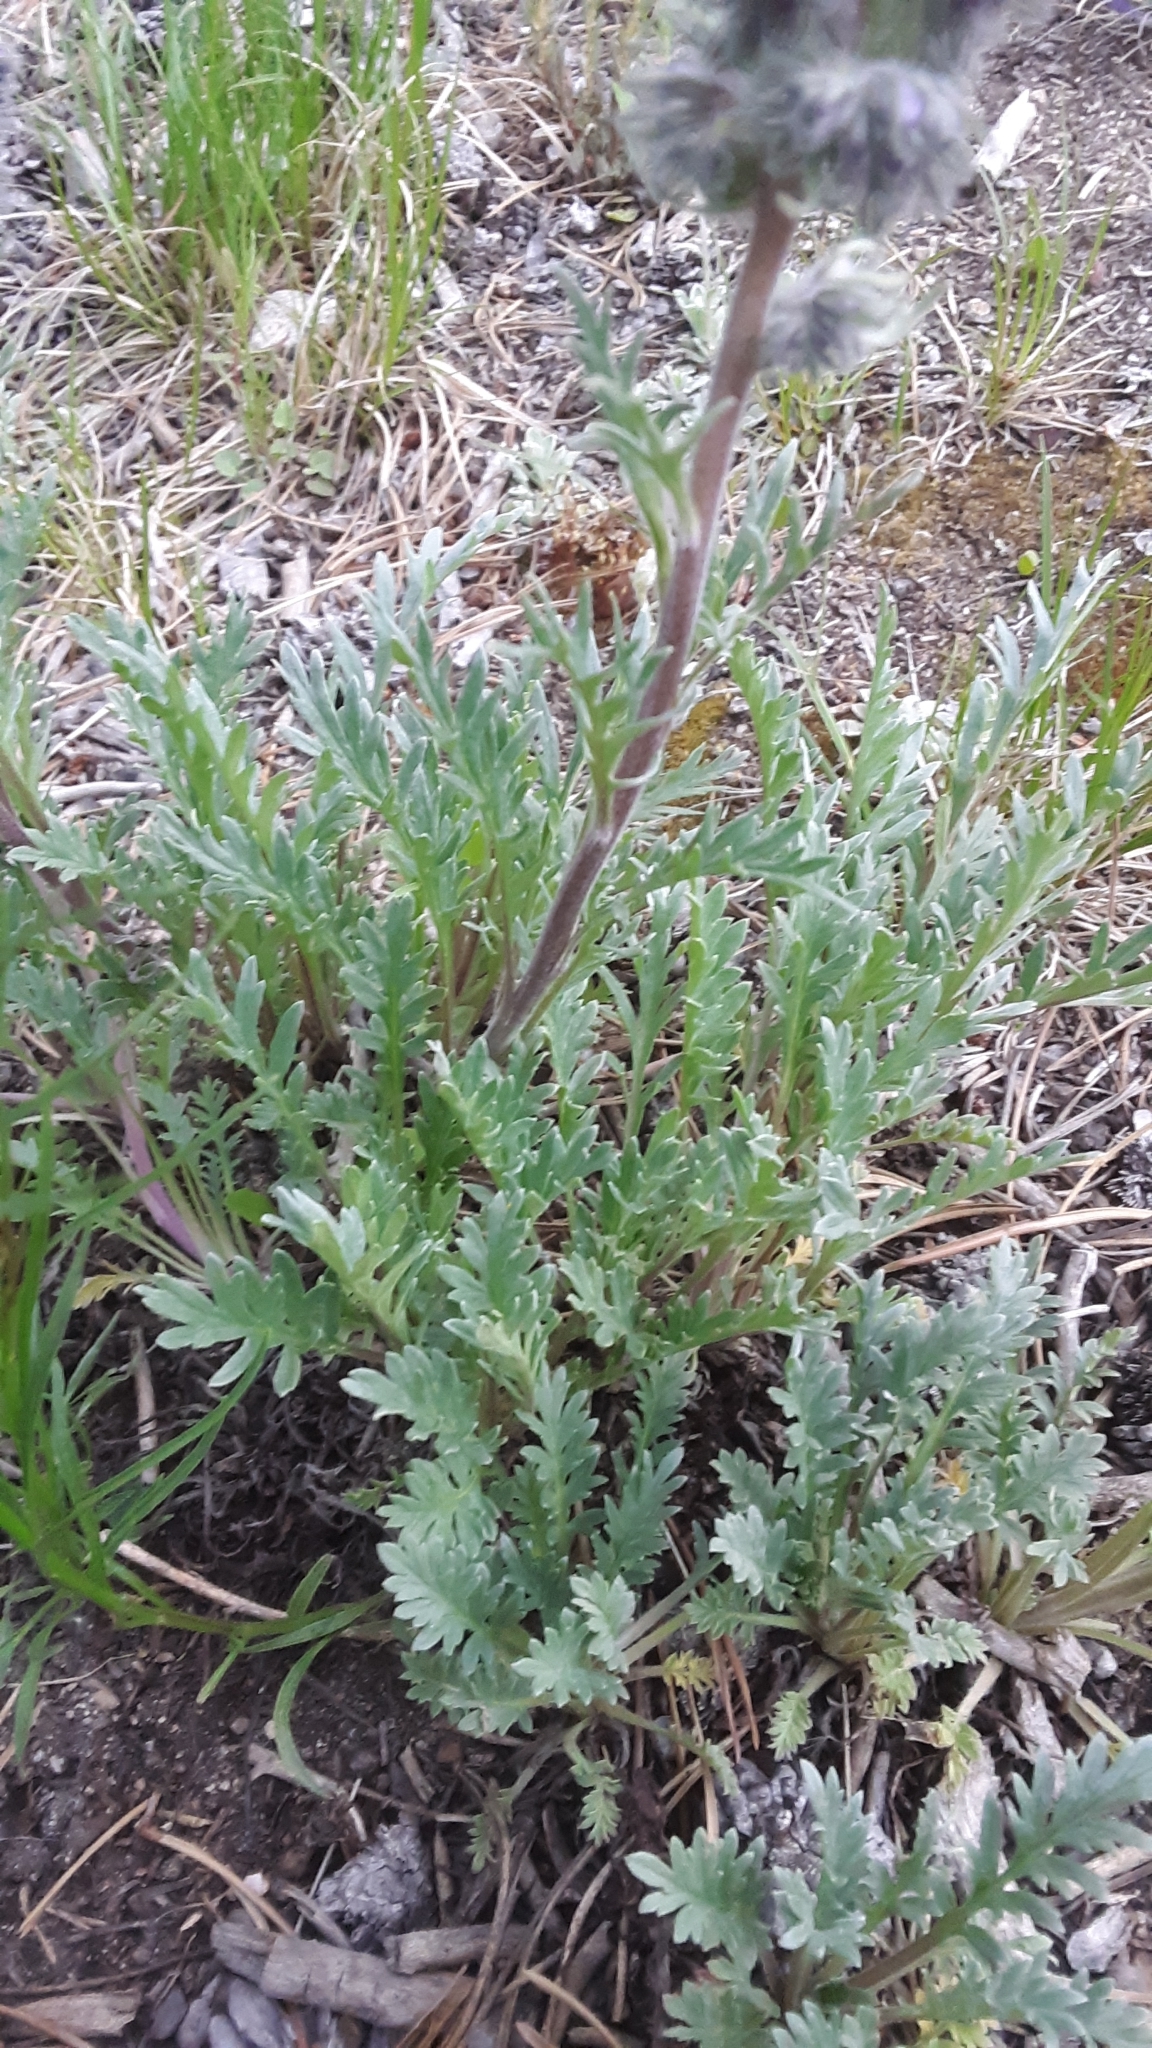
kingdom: Plantae
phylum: Tracheophyta
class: Magnoliopsida
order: Boraginales
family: Hydrophyllaceae
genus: Phacelia
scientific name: Phacelia sericea
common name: Silky phacelia
